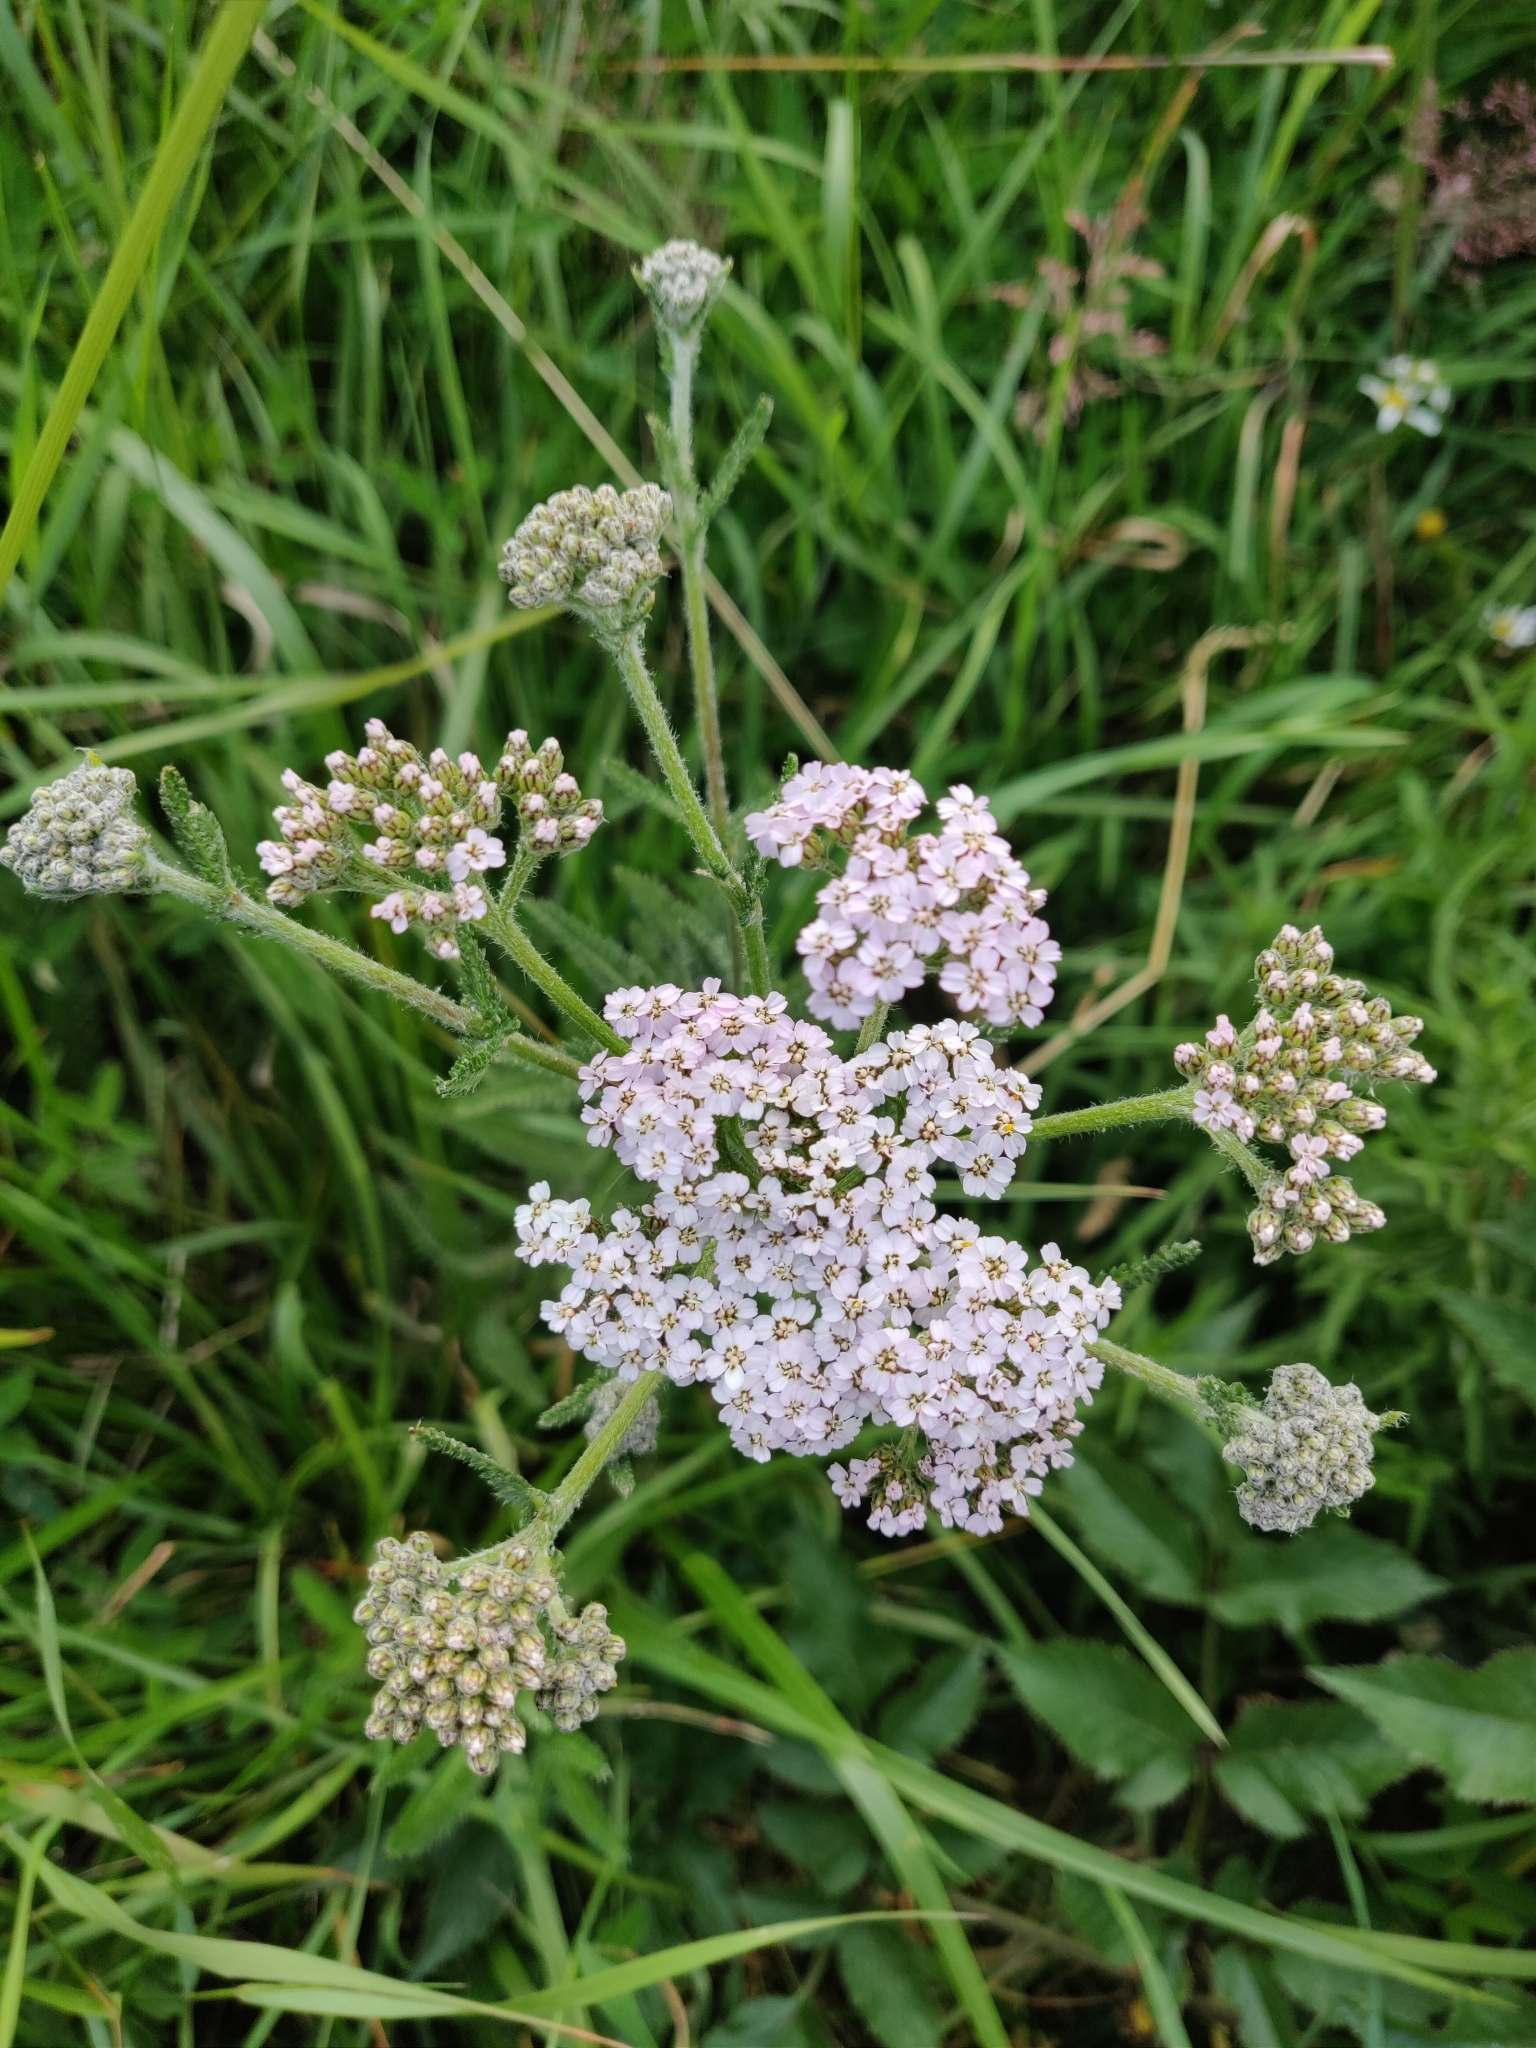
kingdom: Plantae
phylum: Tracheophyta
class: Magnoliopsida
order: Asterales
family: Asteraceae
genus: Achillea
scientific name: Achillea millefolium
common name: Yarrow
